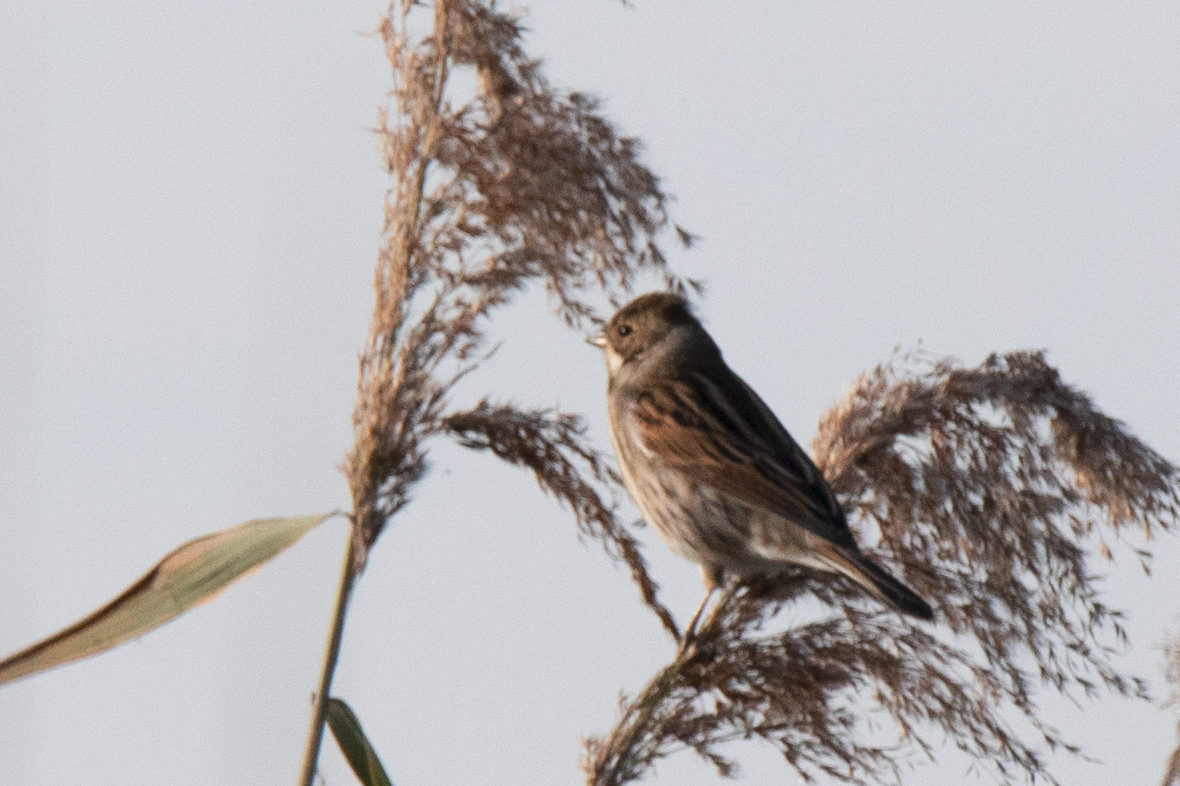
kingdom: Animalia
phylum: Chordata
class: Aves
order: Passeriformes
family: Emberizidae
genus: Emberiza
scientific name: Emberiza schoeniclus
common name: Reed bunting
